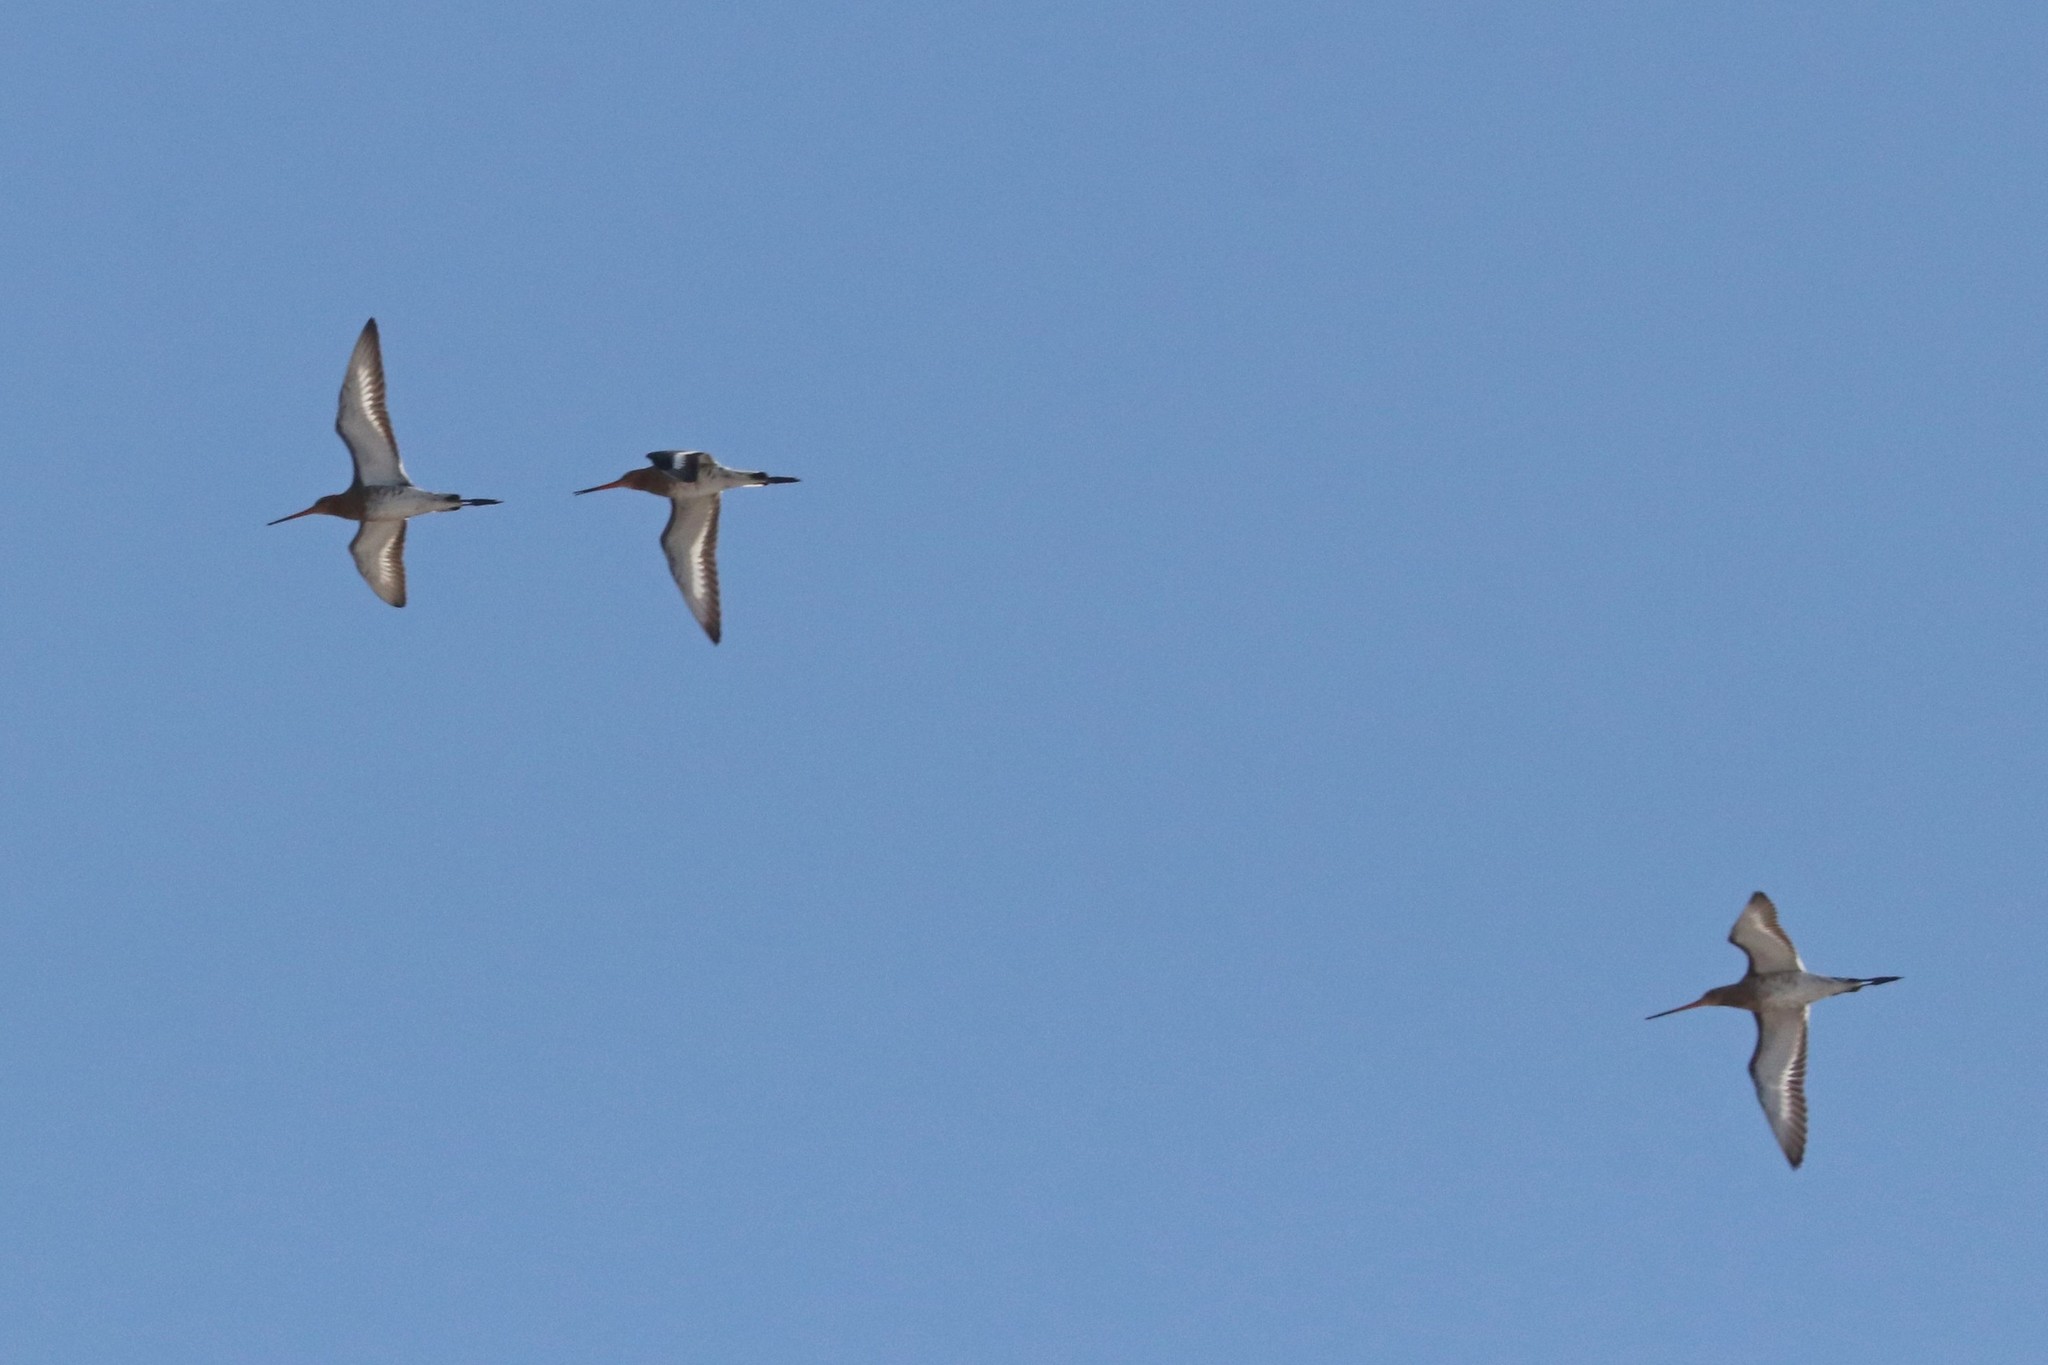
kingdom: Animalia
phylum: Chordata
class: Aves
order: Charadriiformes
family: Scolopacidae
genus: Limosa
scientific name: Limosa limosa
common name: Black-tailed godwit
